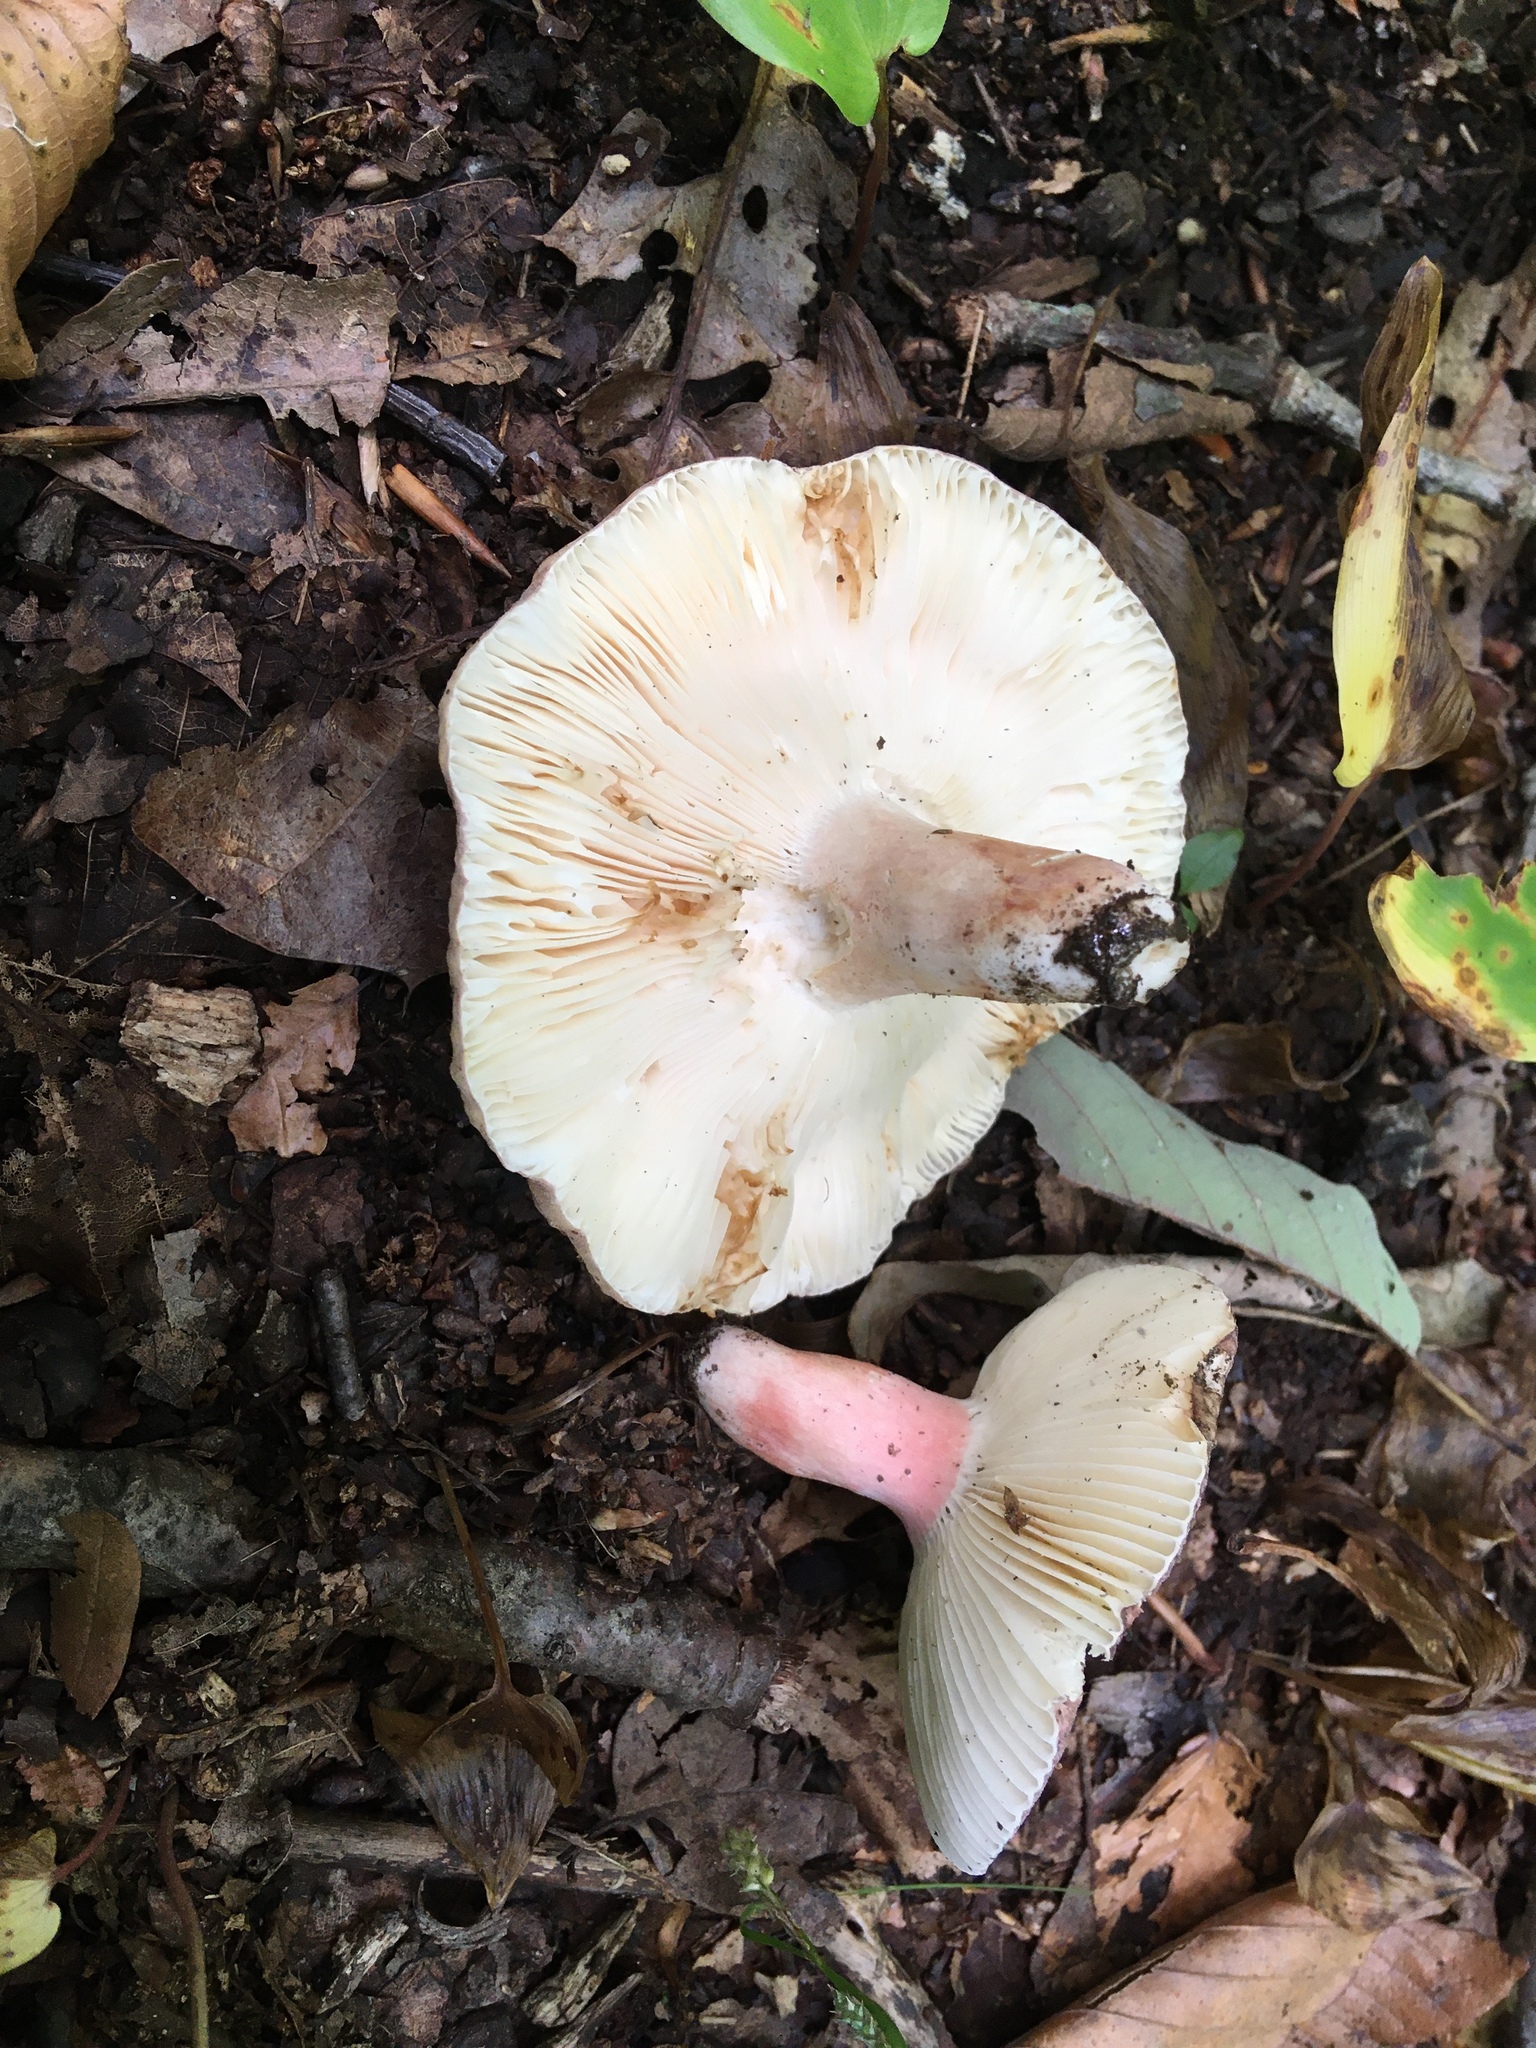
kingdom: Fungi
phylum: Basidiomycota
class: Agaricomycetes
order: Russulales
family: Russulaceae
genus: Russula
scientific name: Russula olivacea
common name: Olive brittlegill
